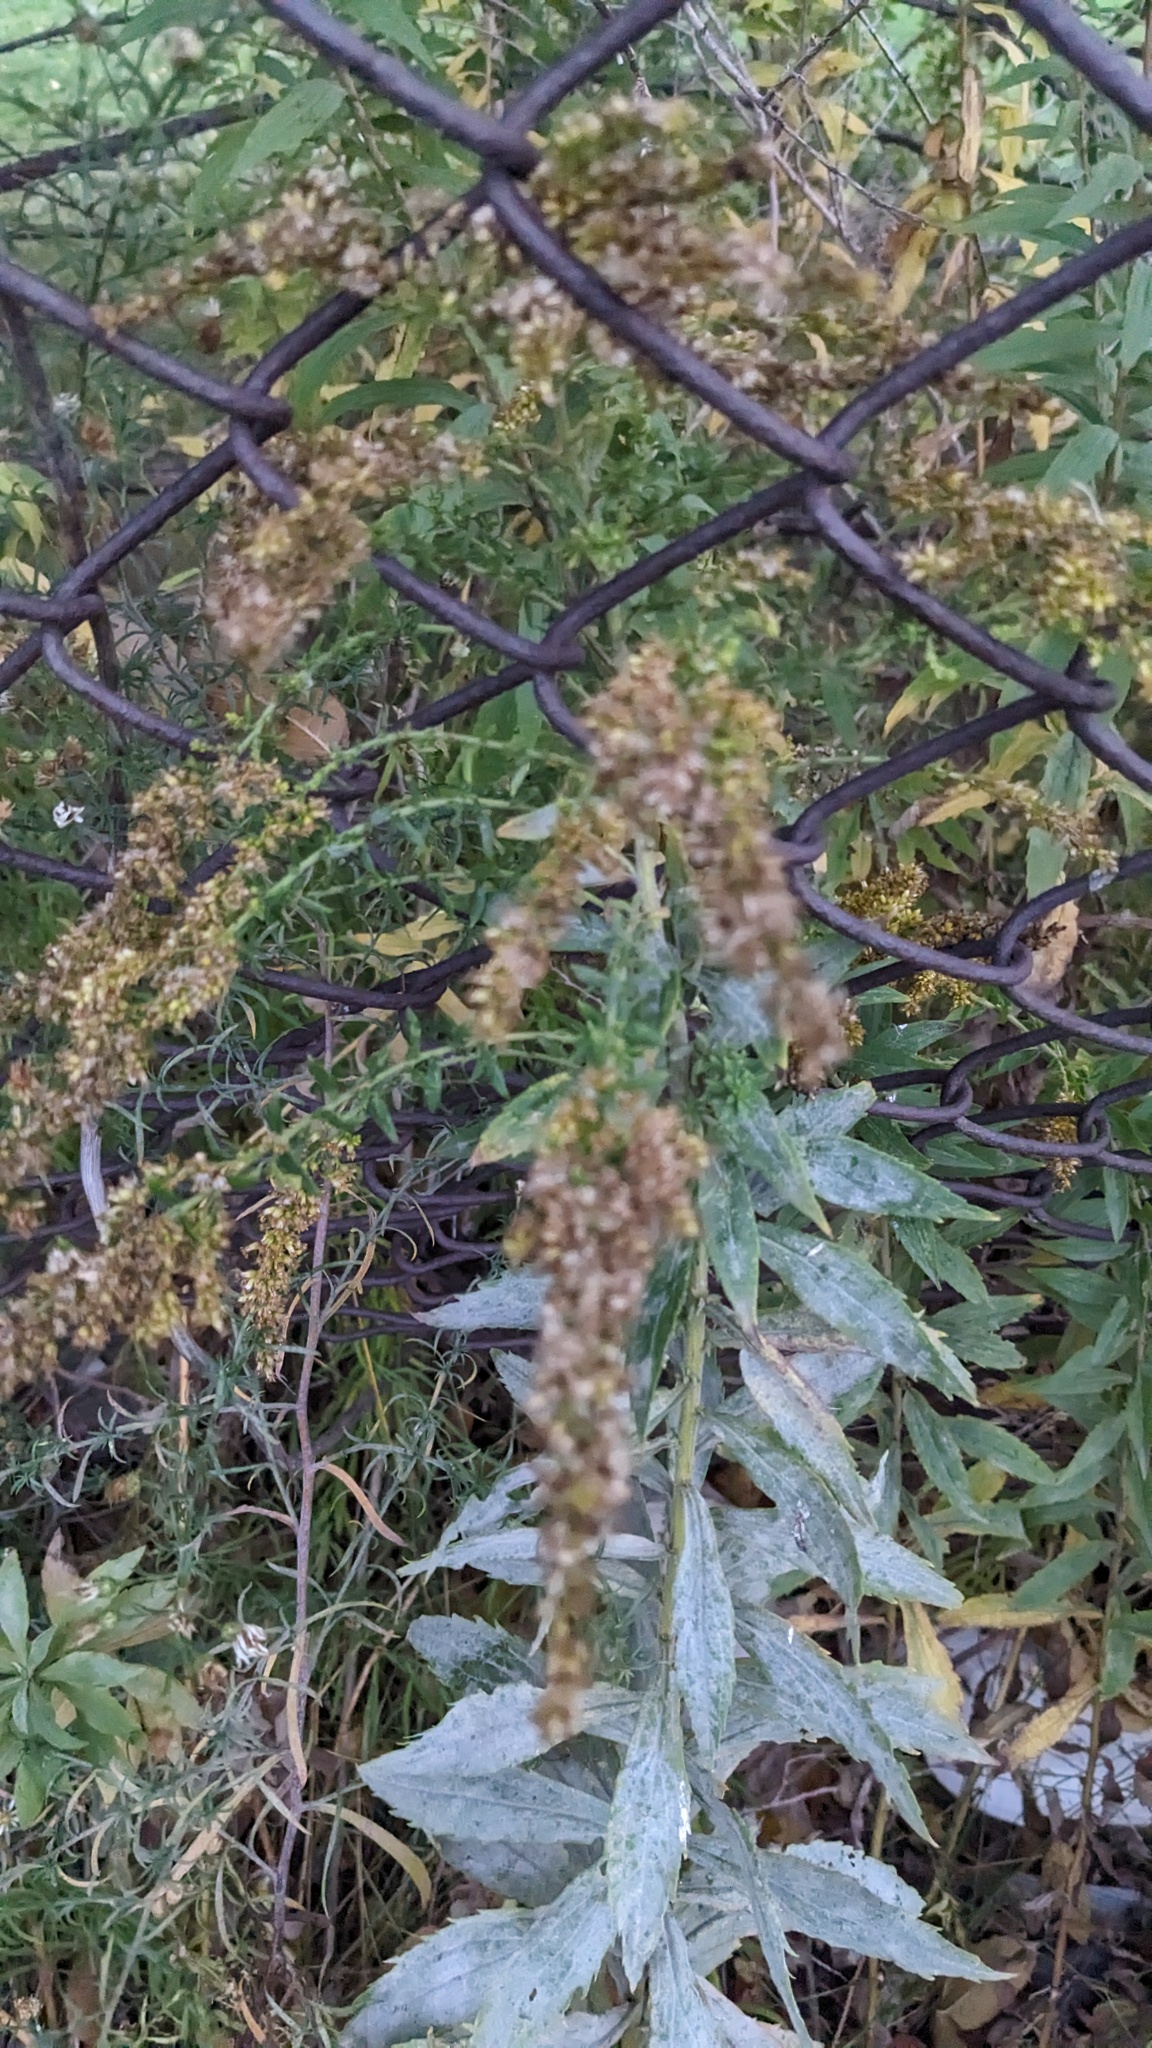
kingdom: Fungi
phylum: Ascomycota
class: Leotiomycetes
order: Helotiales
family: Erysiphaceae
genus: Golovinomyces
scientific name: Golovinomyces asterum
